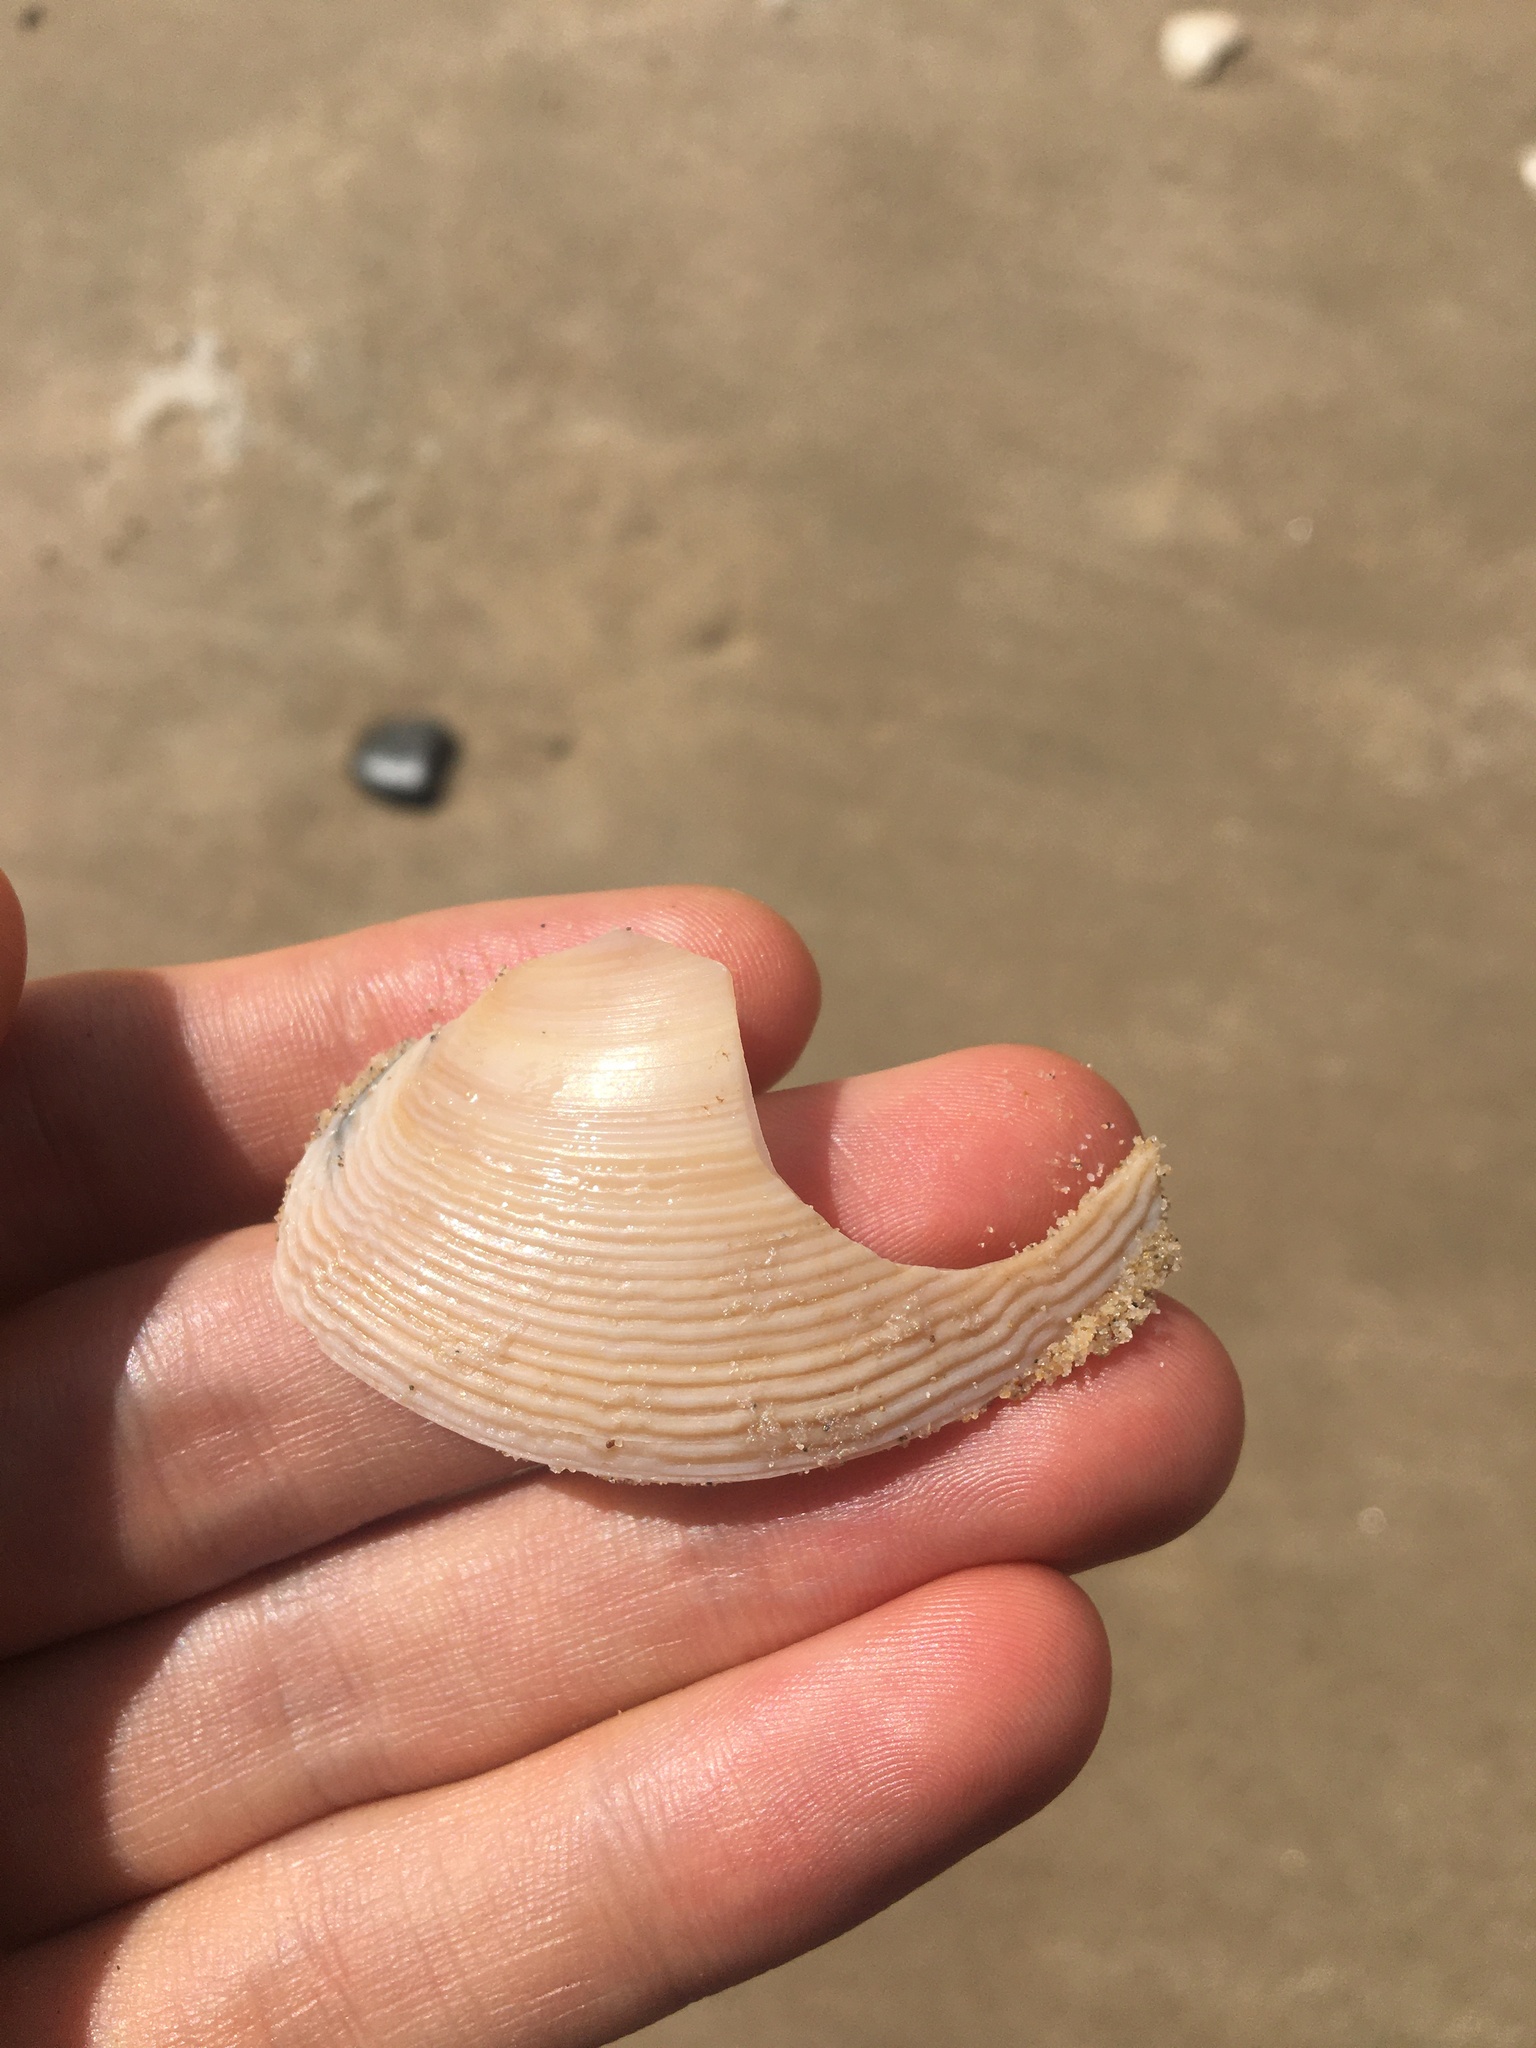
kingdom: Animalia
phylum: Mollusca
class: Bivalvia
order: Venerida
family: Mactridae
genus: Austromactra
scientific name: Austromactra rufescens
